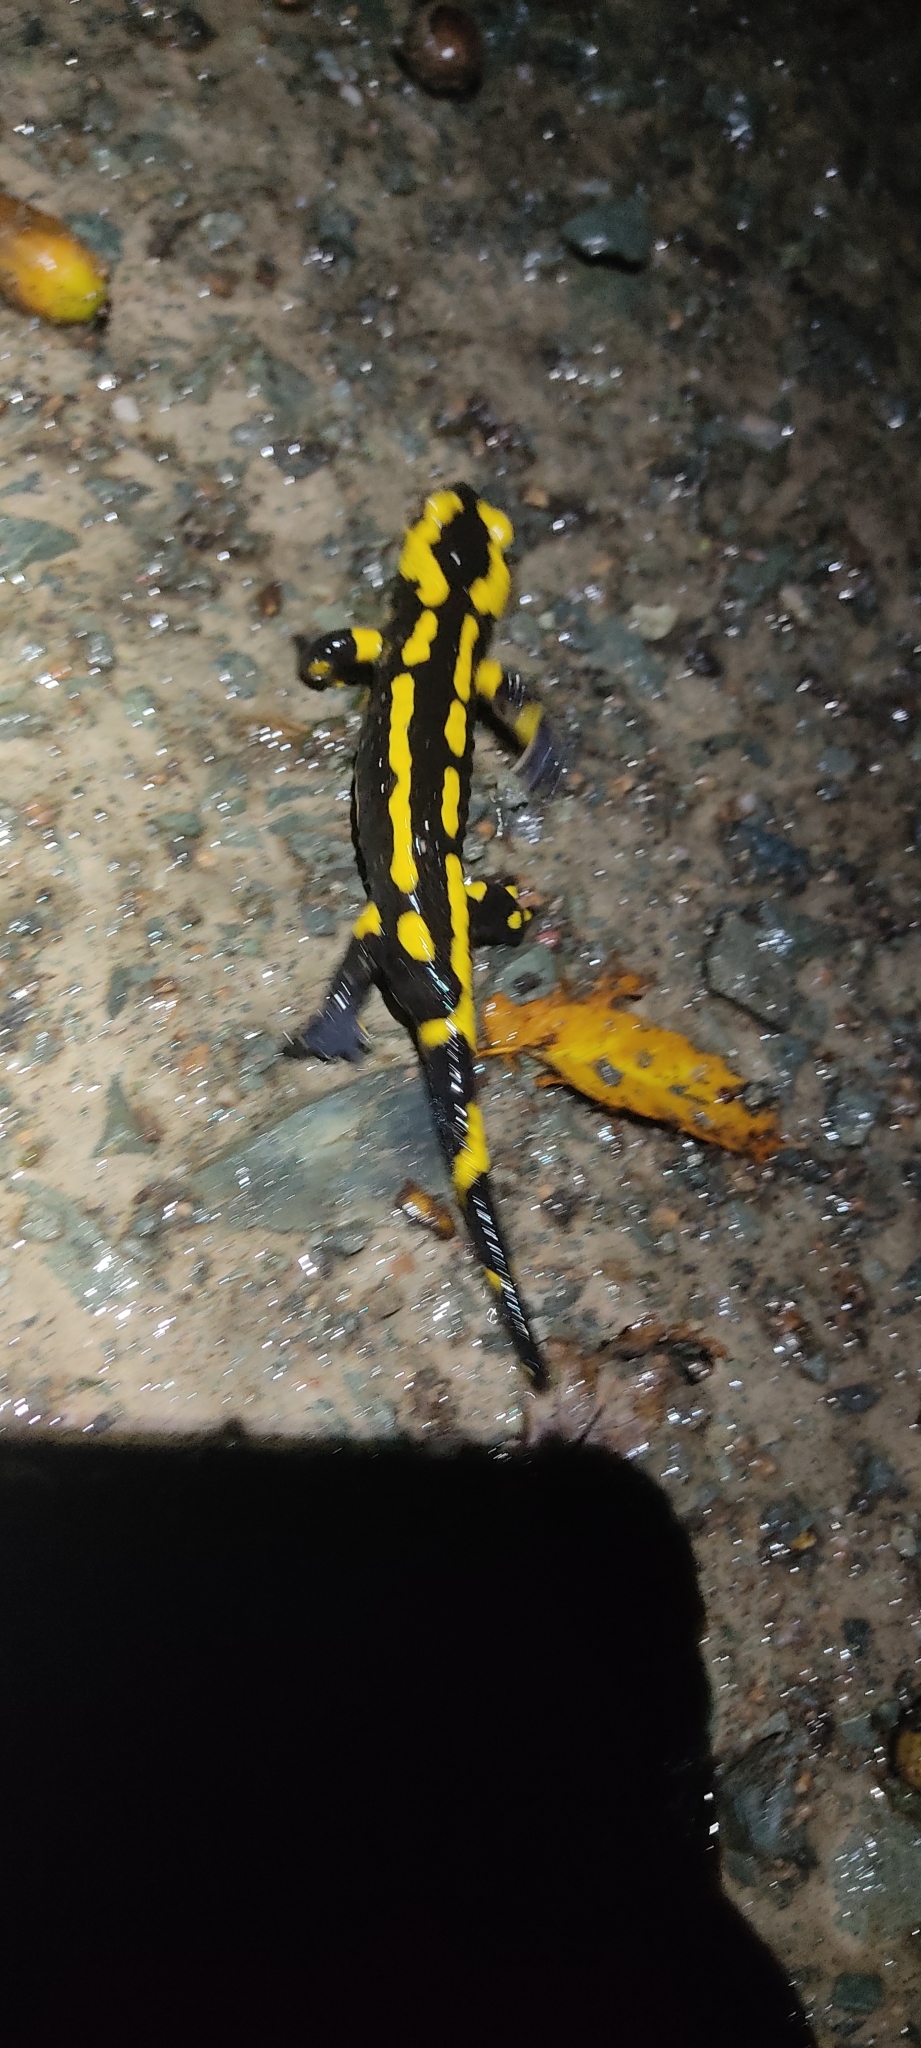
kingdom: Animalia
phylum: Chordata
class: Amphibia
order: Caudata
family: Salamandridae
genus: Salamandra
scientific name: Salamandra salamandra
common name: Fire salamander
